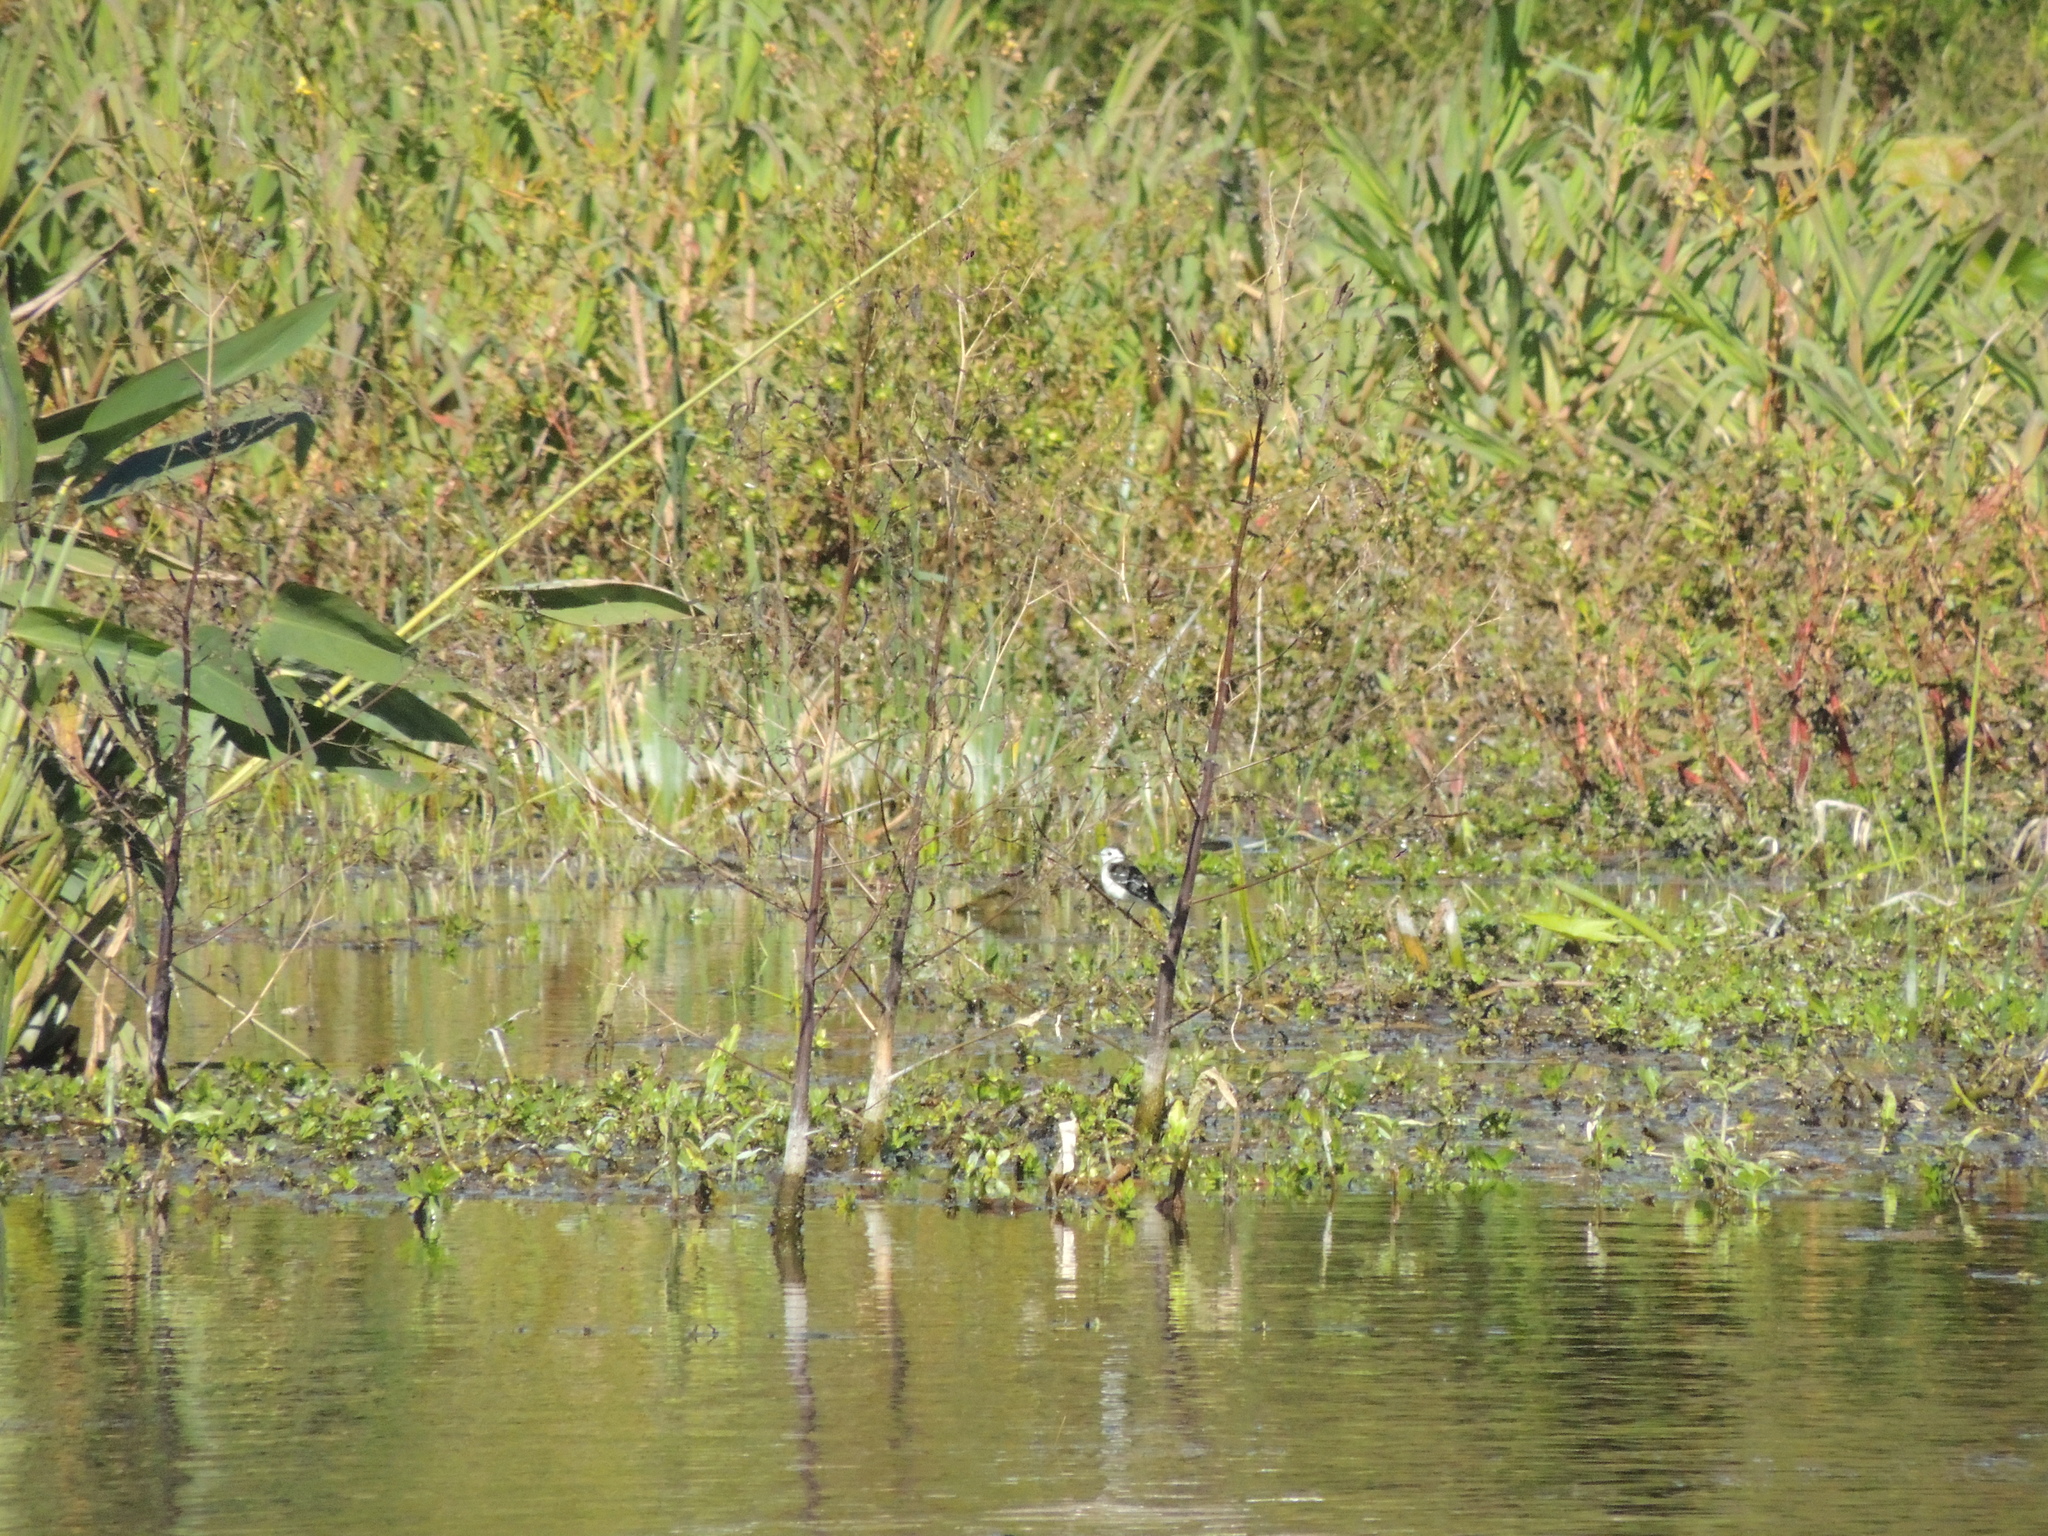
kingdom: Animalia
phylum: Chordata
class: Aves
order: Passeriformes
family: Tyrannidae
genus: Fluvicola
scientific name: Fluvicola pica
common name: Pied water-tyrant
